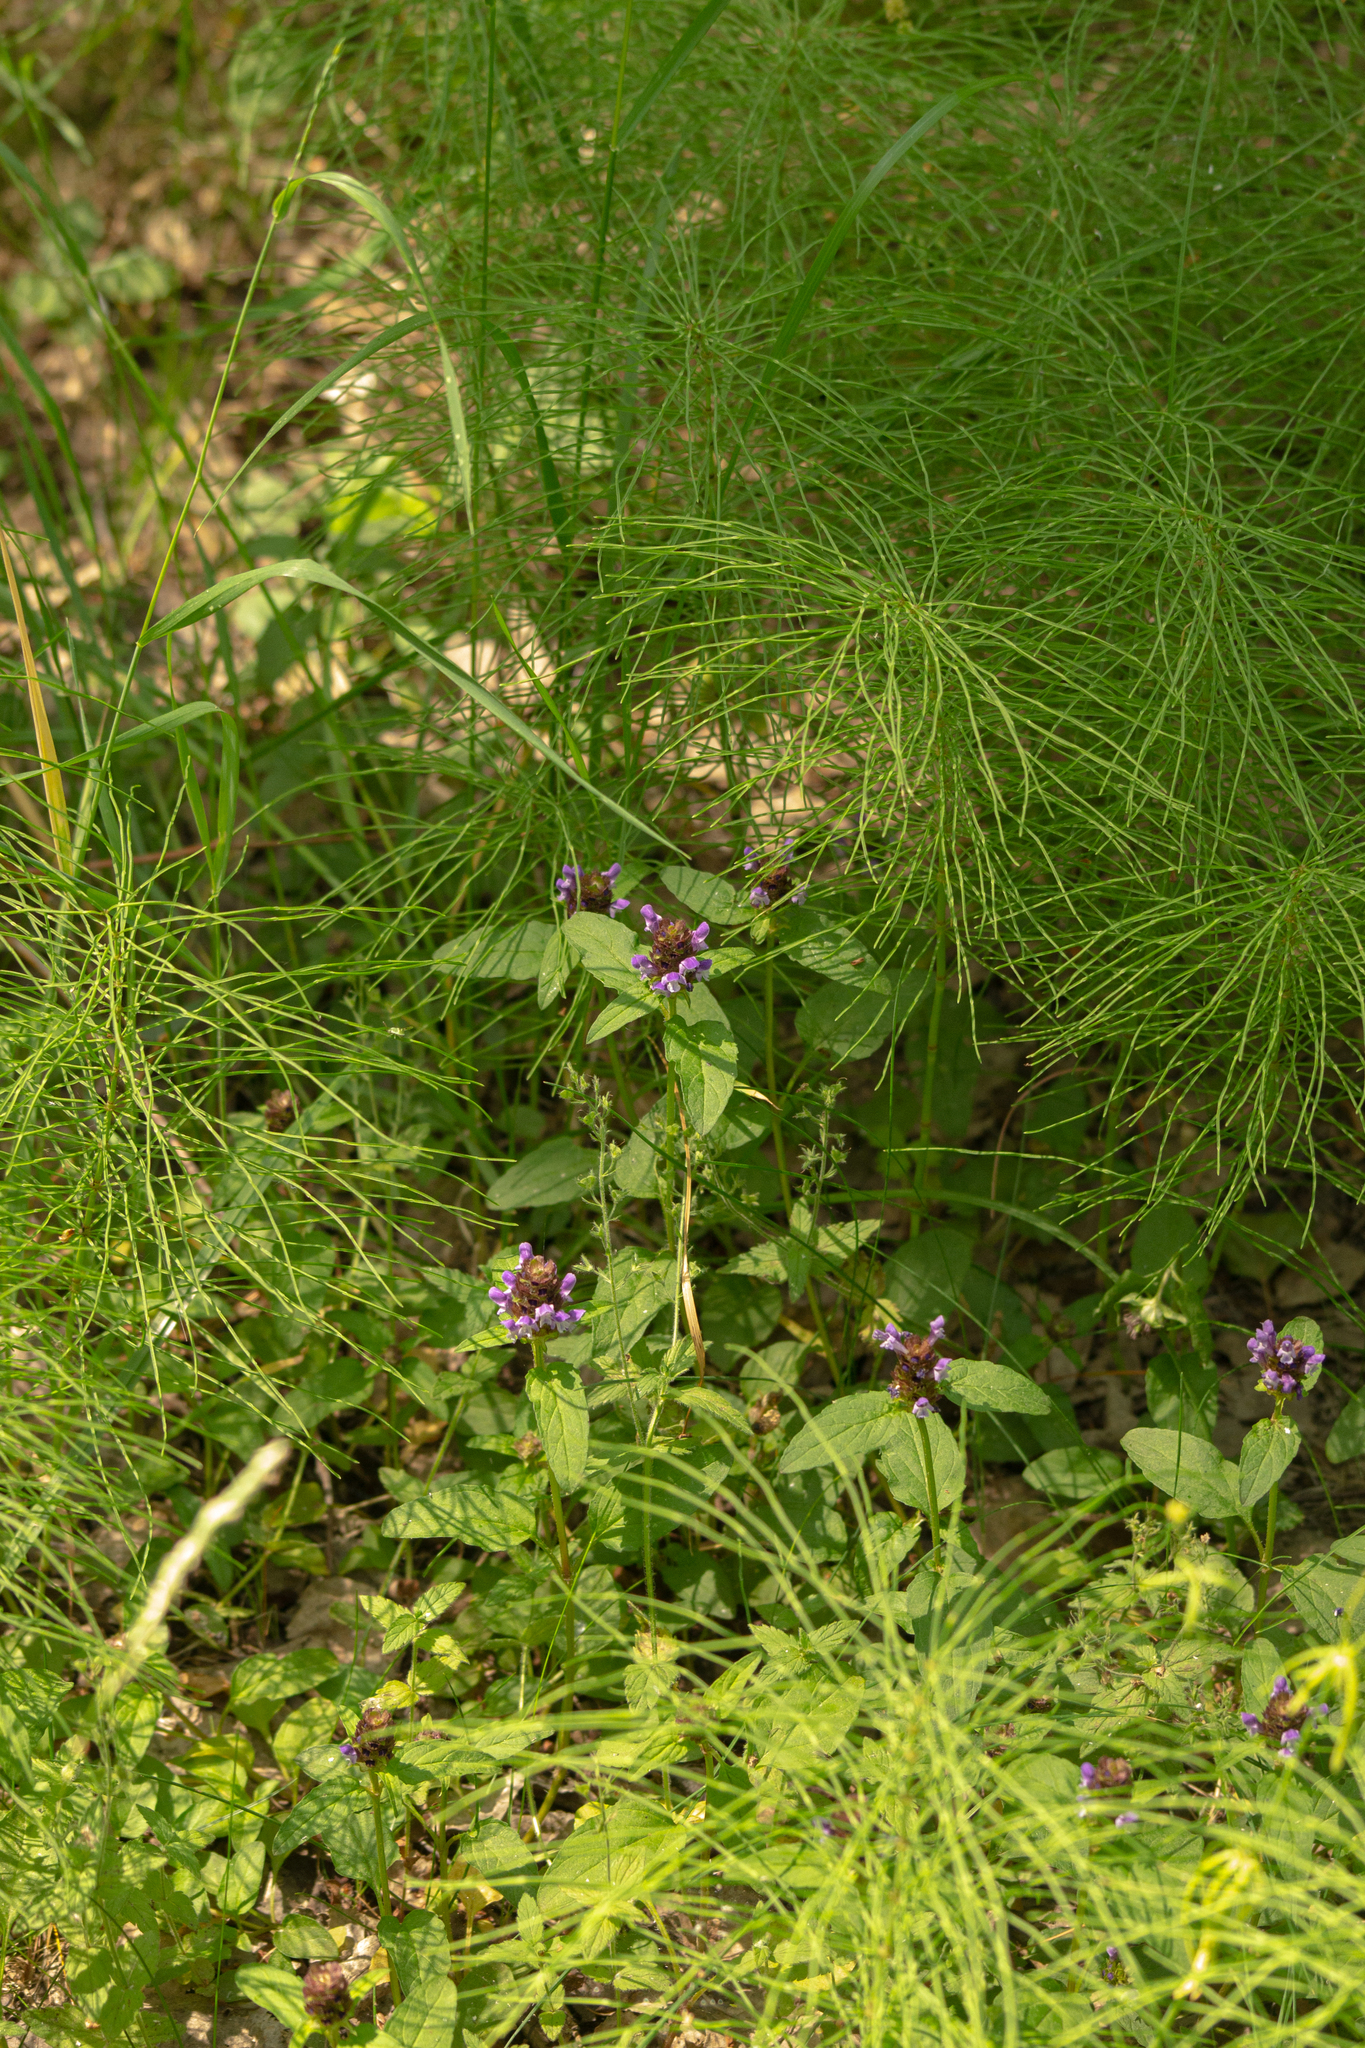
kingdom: Plantae
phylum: Tracheophyta
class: Magnoliopsida
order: Lamiales
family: Lamiaceae
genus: Prunella
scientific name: Prunella vulgaris
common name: Heal-all
